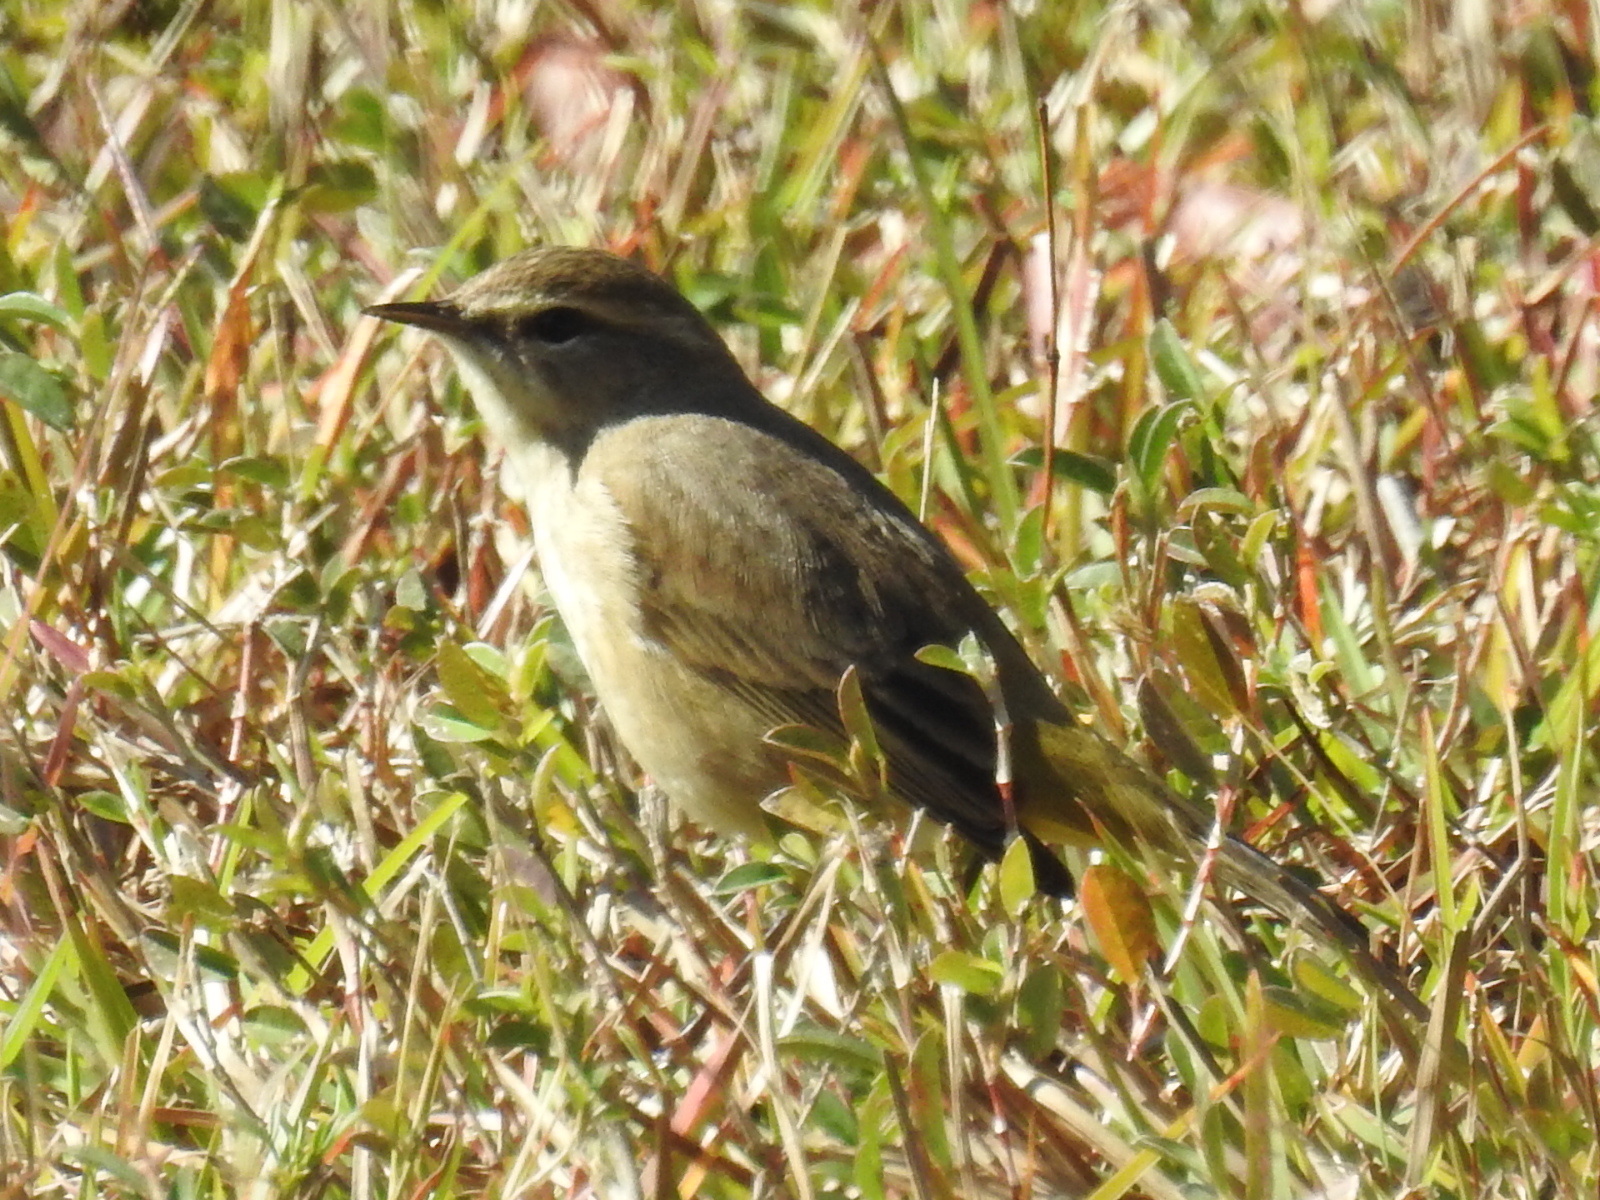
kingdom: Animalia
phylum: Chordata
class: Aves
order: Passeriformes
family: Parulidae
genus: Setophaga
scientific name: Setophaga palmarum
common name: Palm warbler
